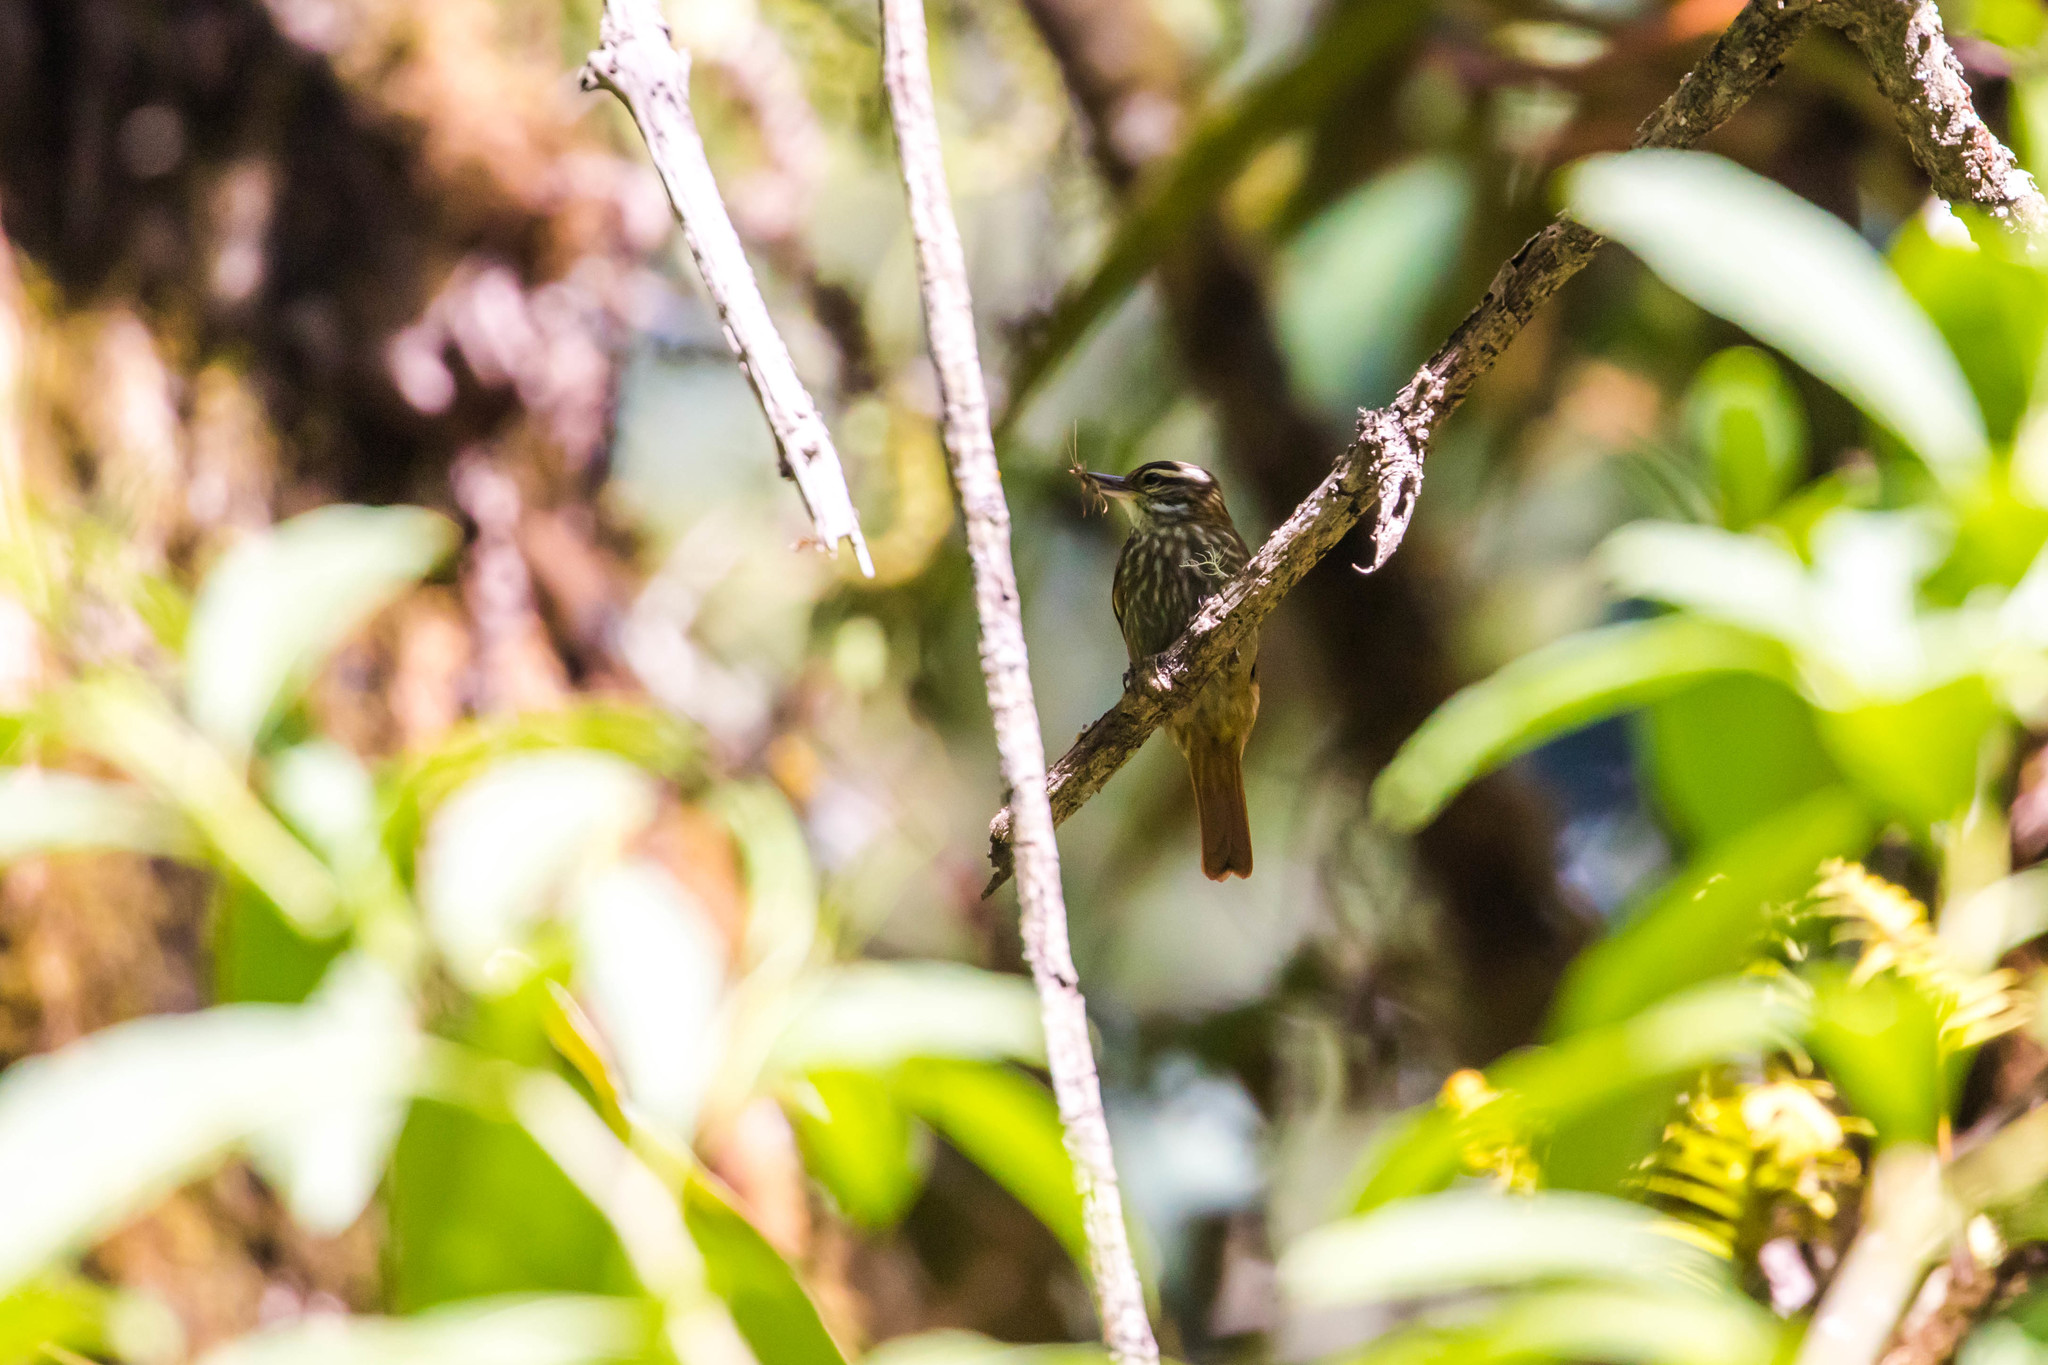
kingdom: Animalia
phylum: Chordata
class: Aves
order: Passeriformes
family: Furnariidae
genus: Xenops
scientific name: Xenops rutilans
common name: Streaked xenops
